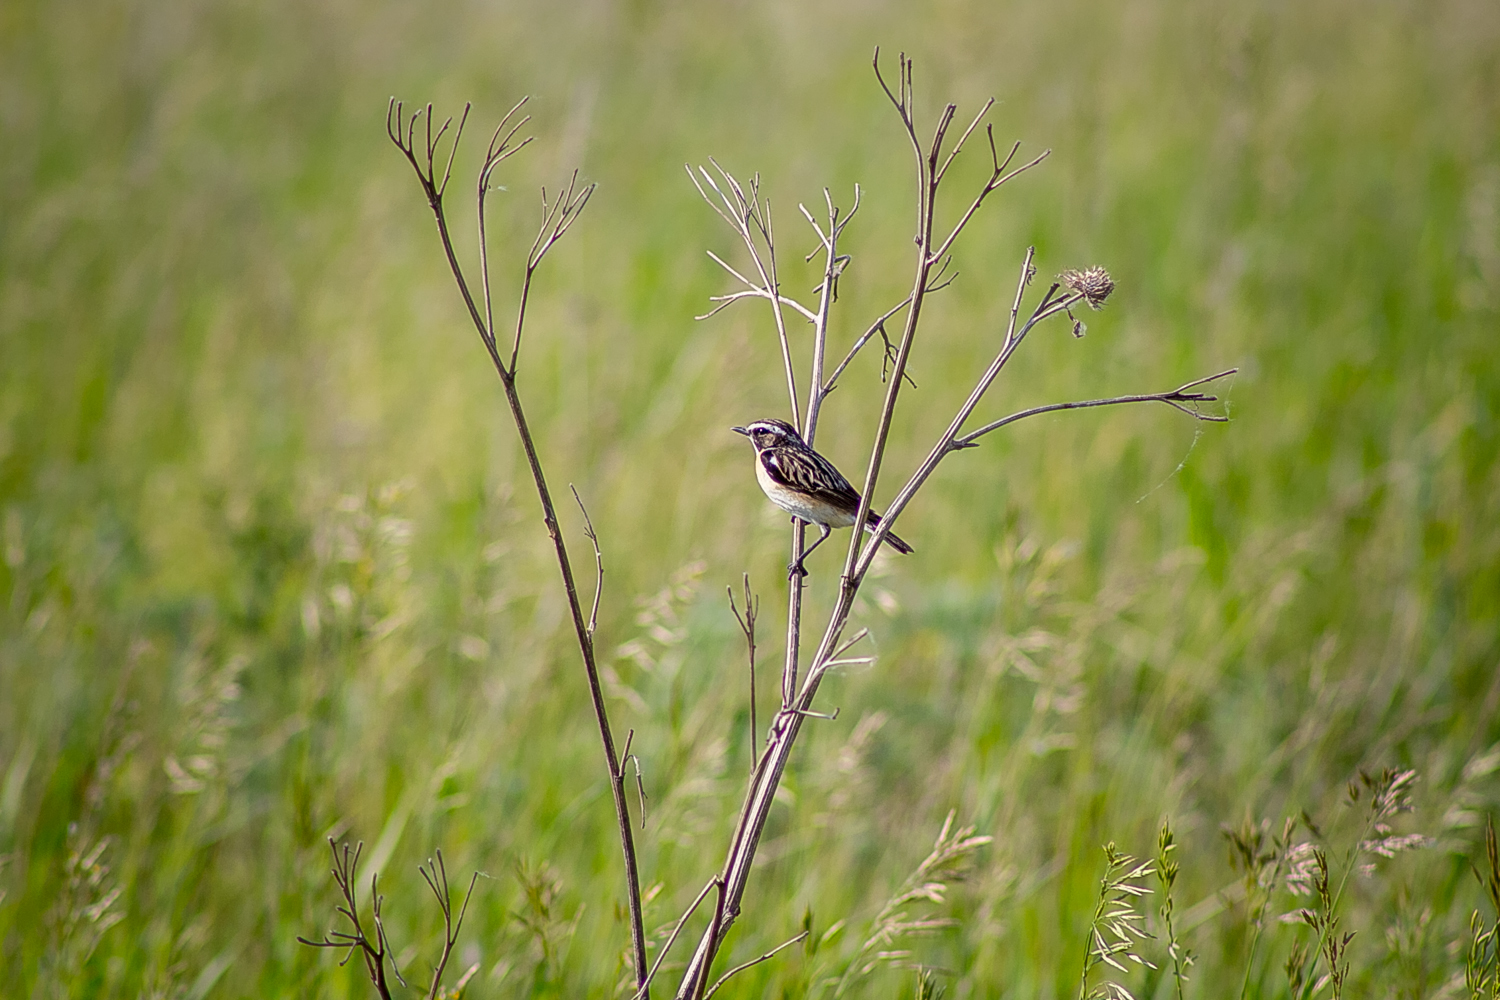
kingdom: Animalia
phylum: Chordata
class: Aves
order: Passeriformes
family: Muscicapidae
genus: Saxicola
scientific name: Saxicola rubetra
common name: Whinchat
